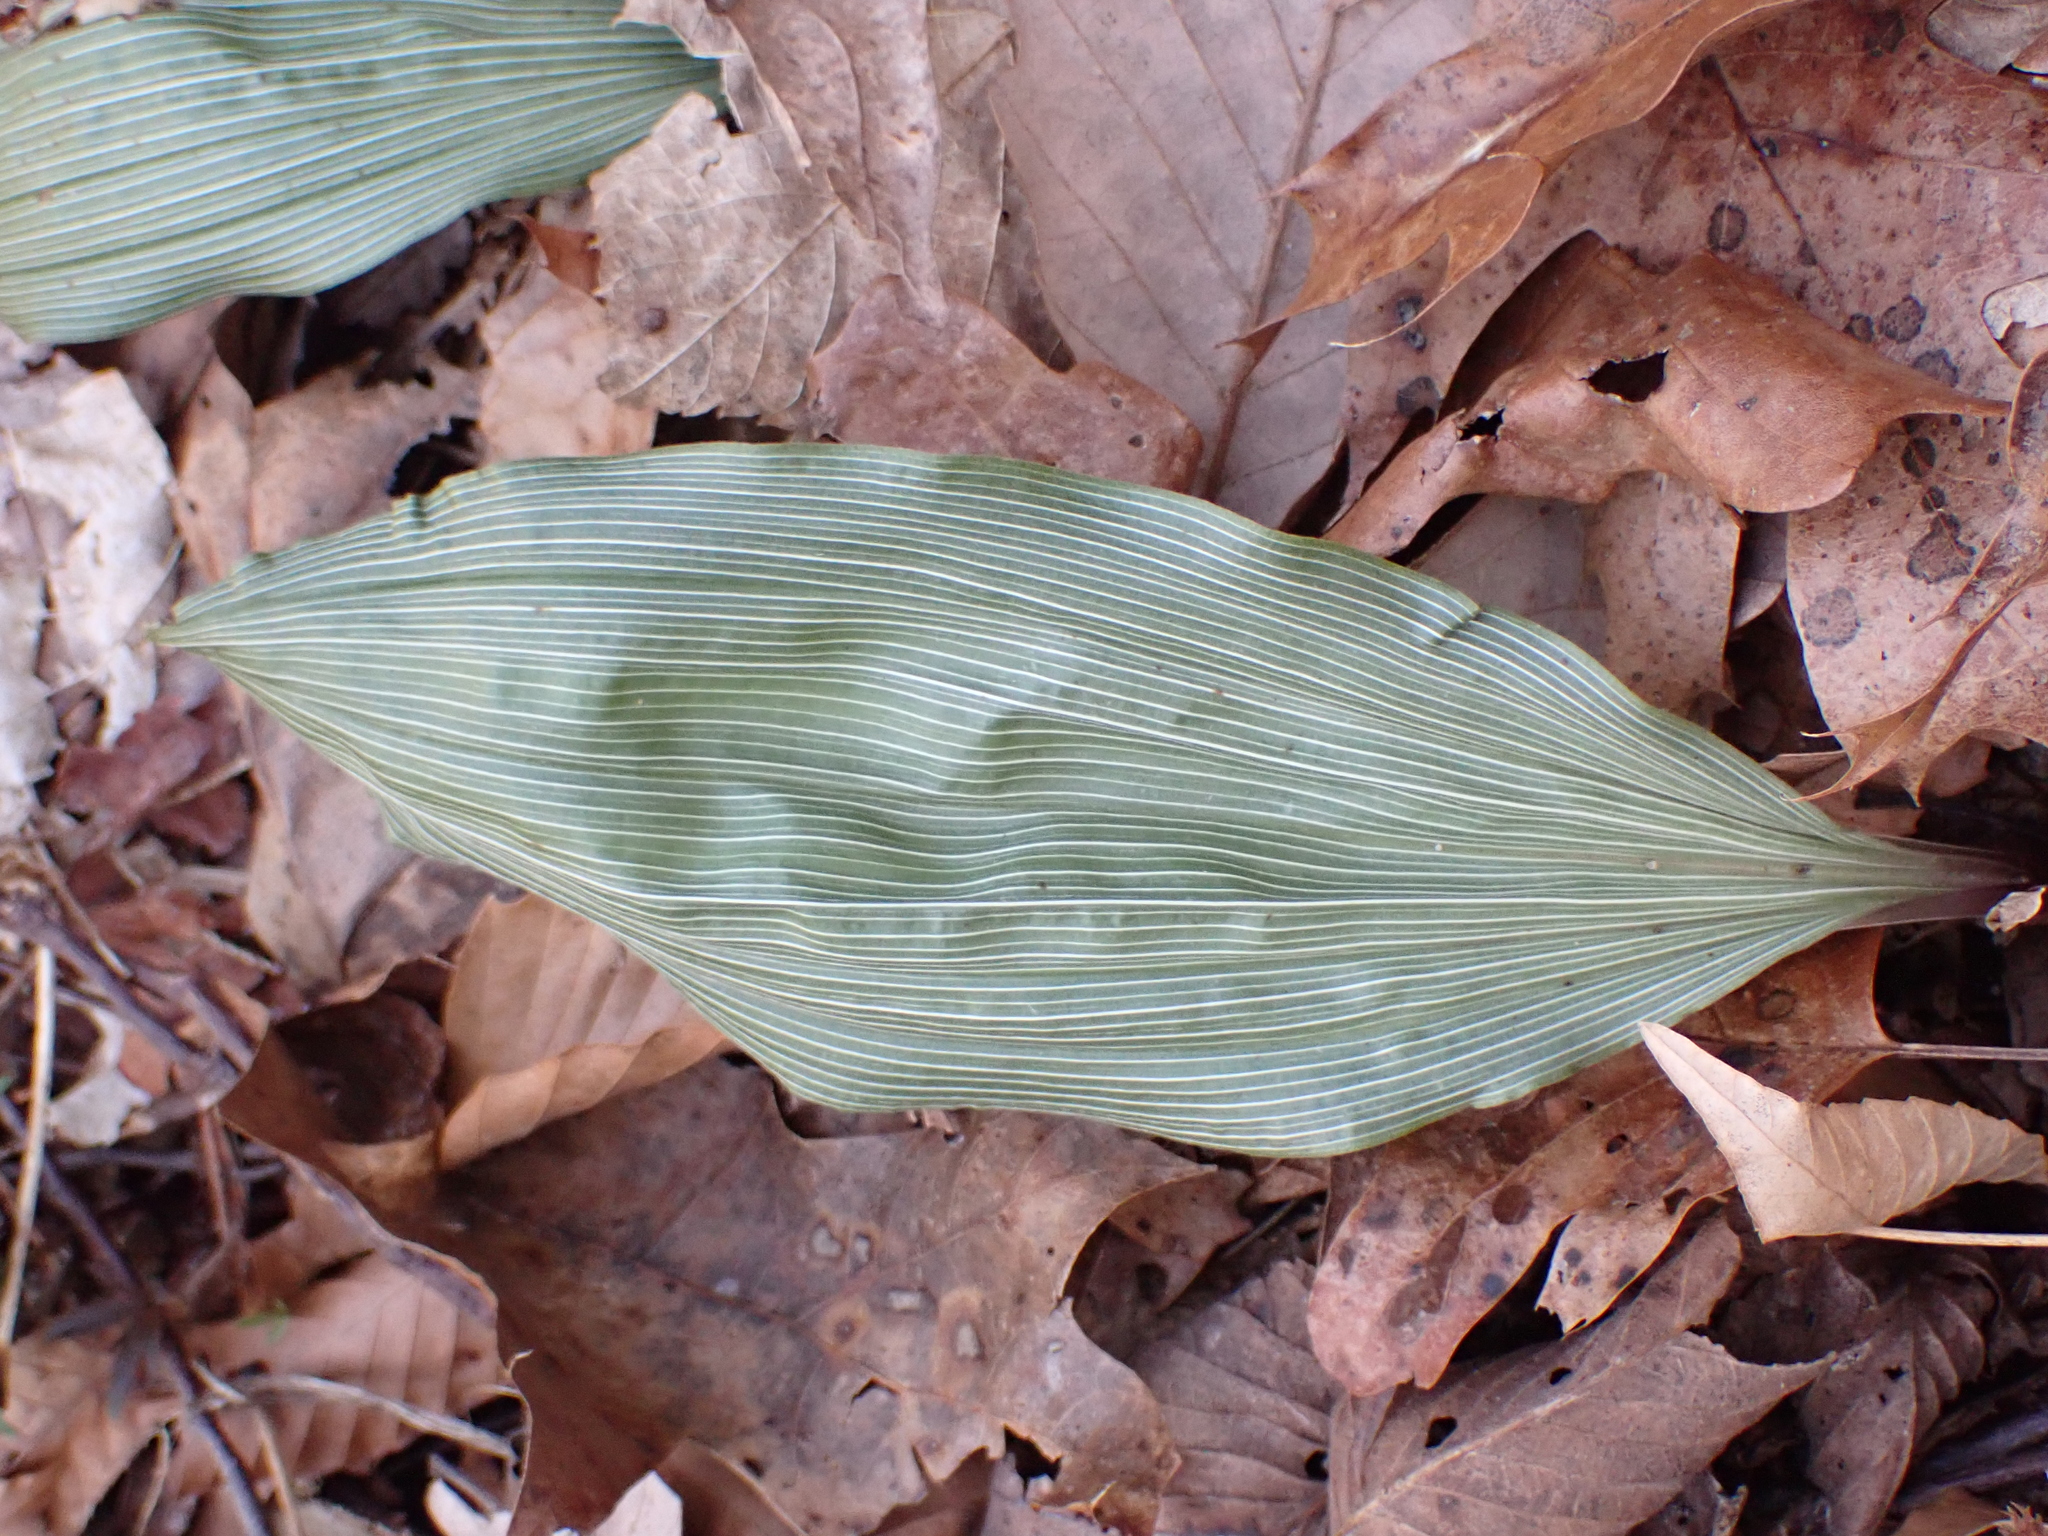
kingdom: Plantae
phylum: Tracheophyta
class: Liliopsida
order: Asparagales
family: Orchidaceae
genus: Aplectrum
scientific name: Aplectrum hyemale
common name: Adam-and-eve
